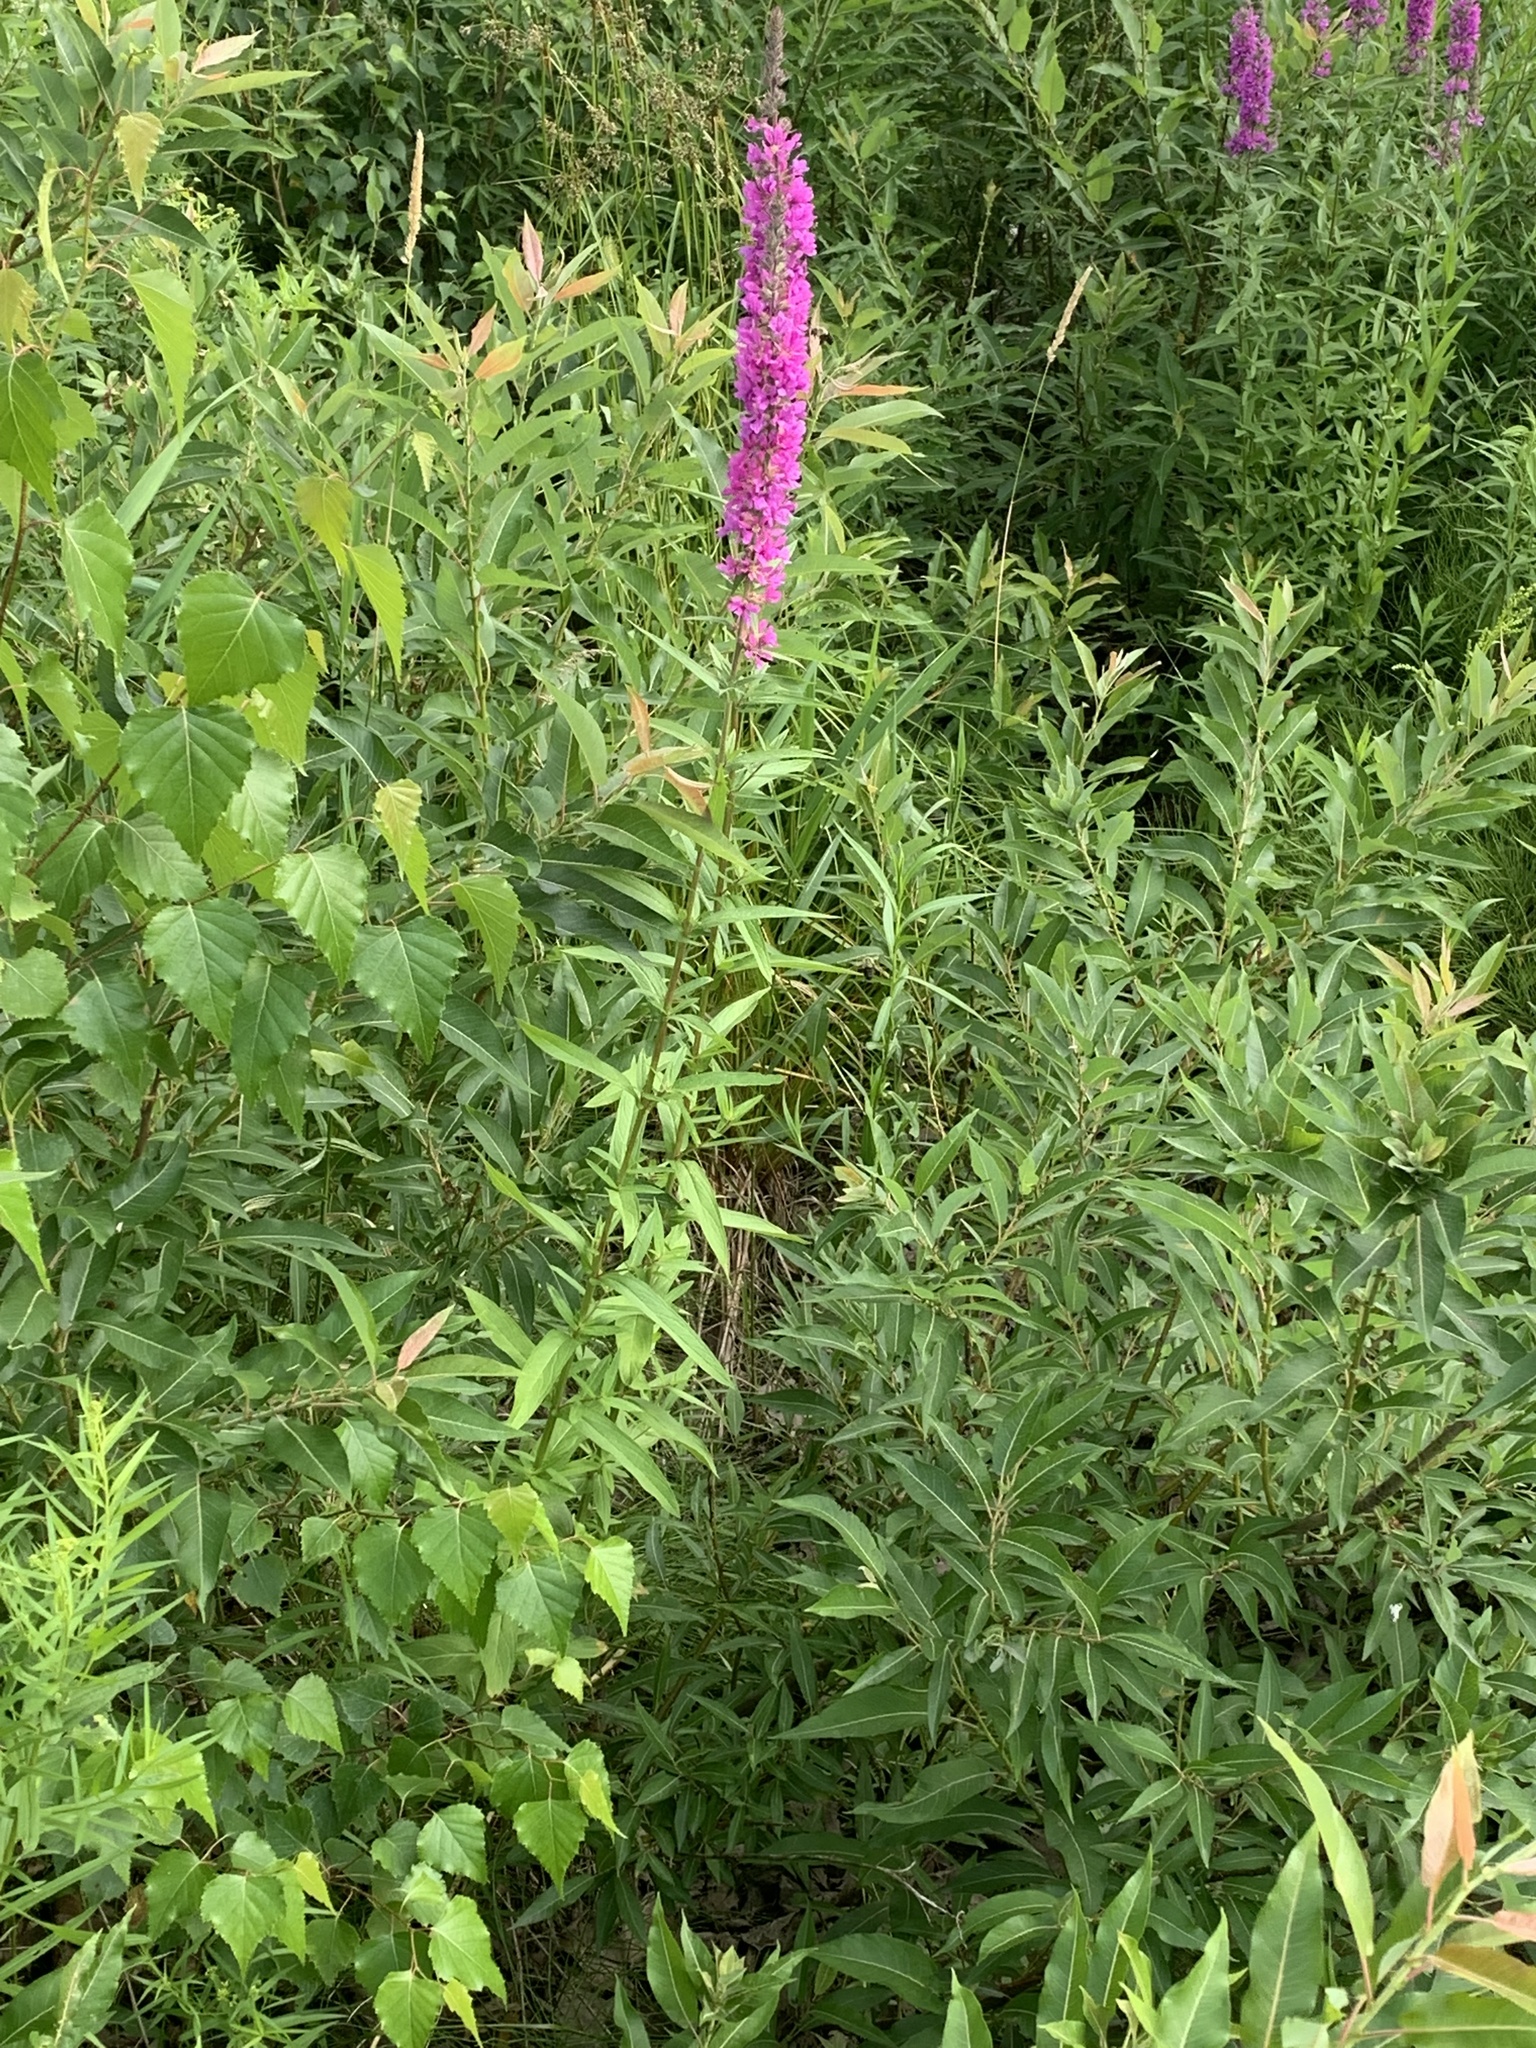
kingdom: Plantae
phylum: Tracheophyta
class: Magnoliopsida
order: Myrtales
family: Lythraceae
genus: Lythrum
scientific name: Lythrum salicaria
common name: Purple loosestrife
